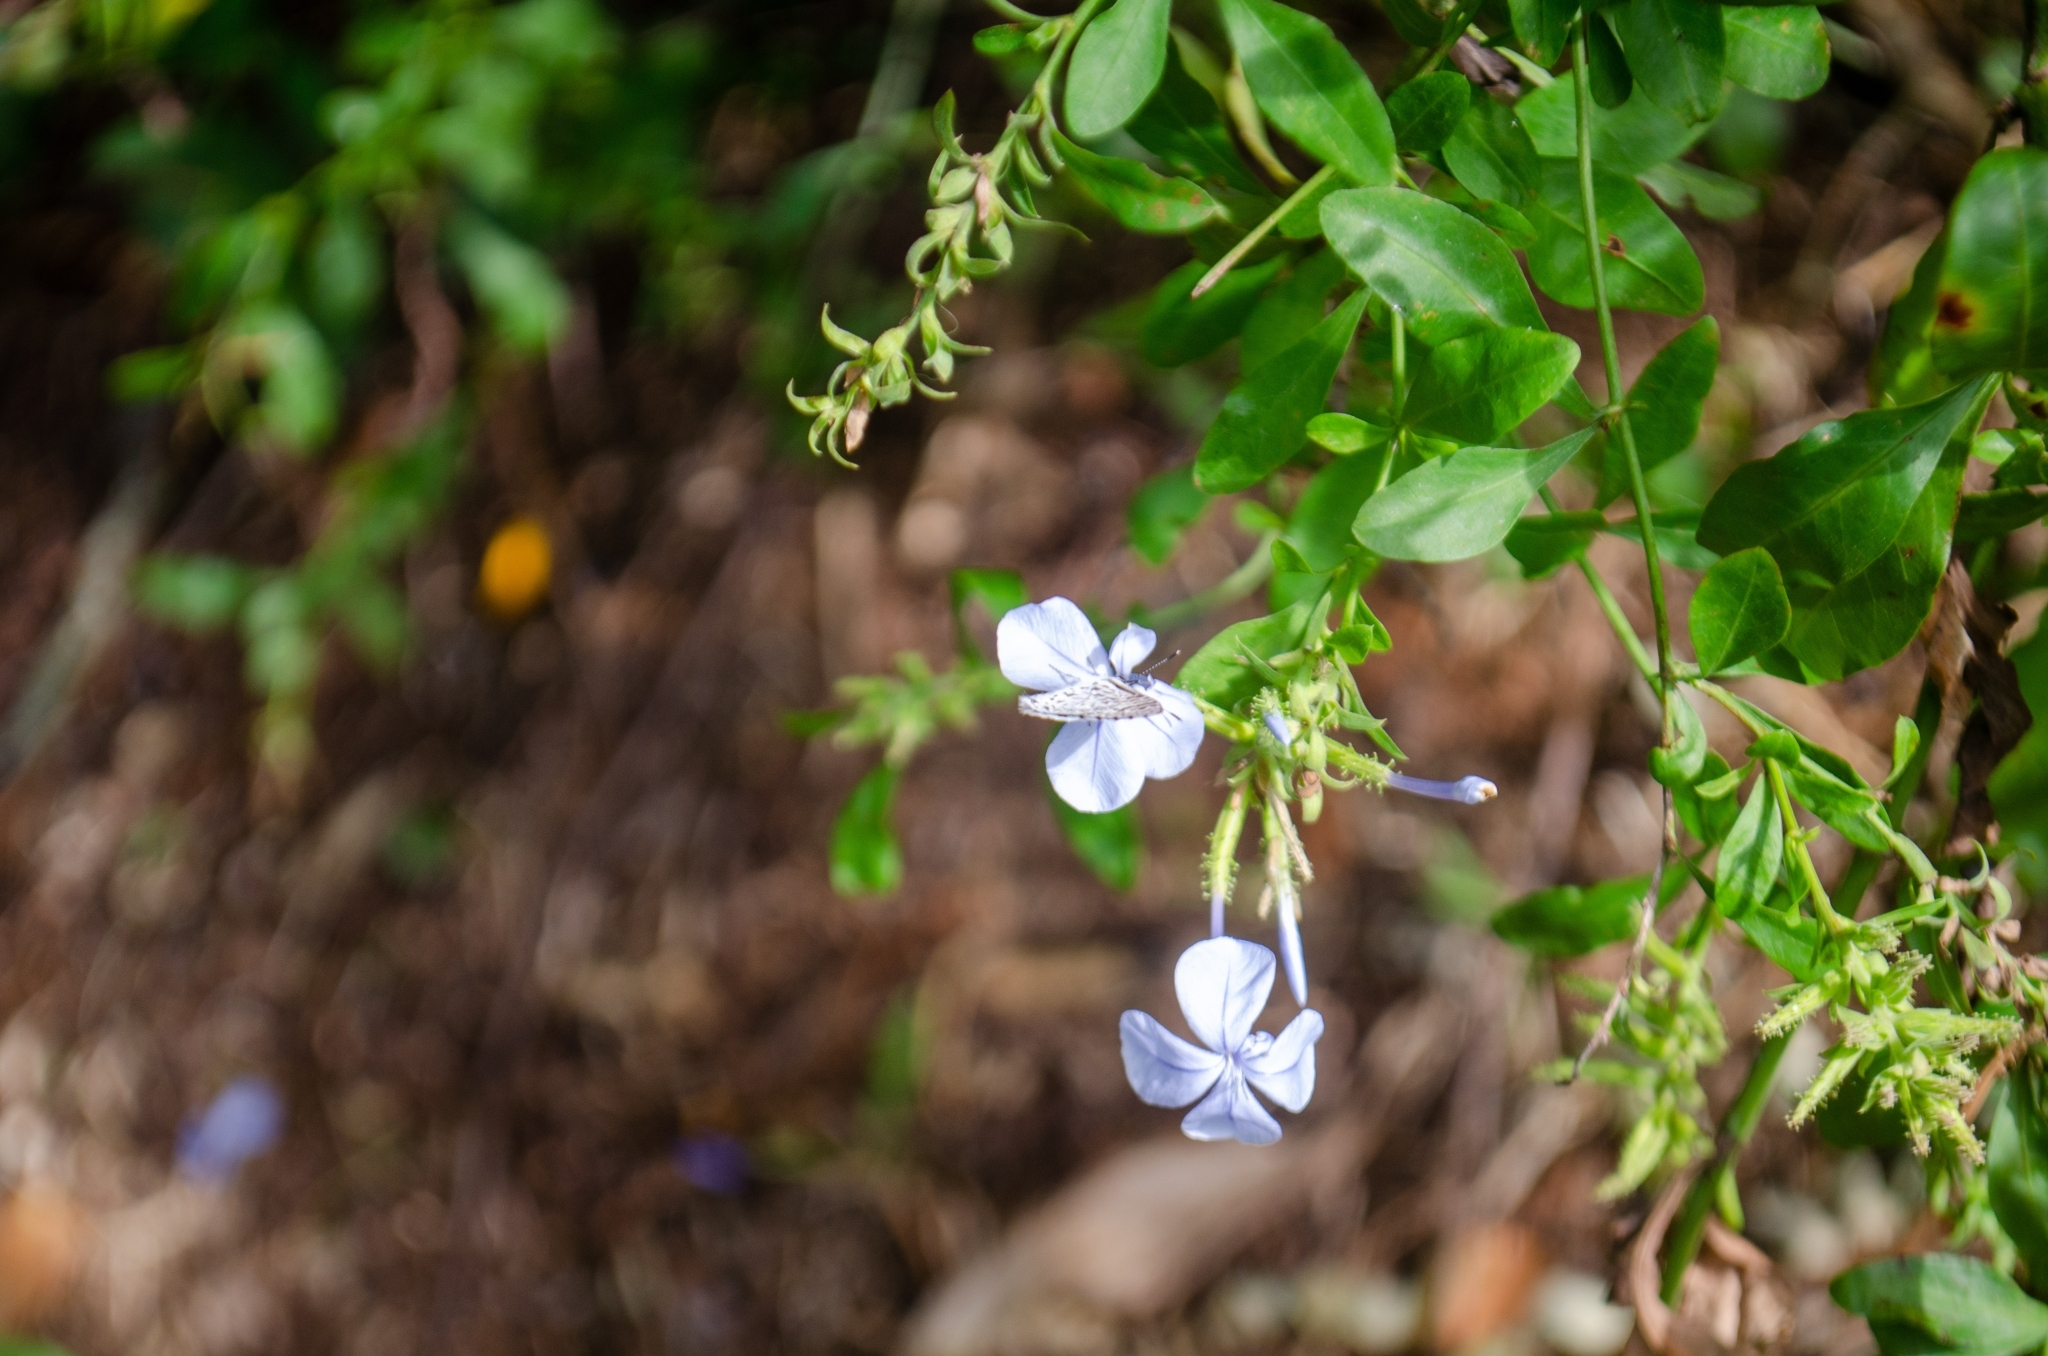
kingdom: Animalia
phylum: Arthropoda
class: Insecta
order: Lepidoptera
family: Lycaenidae
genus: Leptotes
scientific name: Leptotes cassius
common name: Cassius blue
